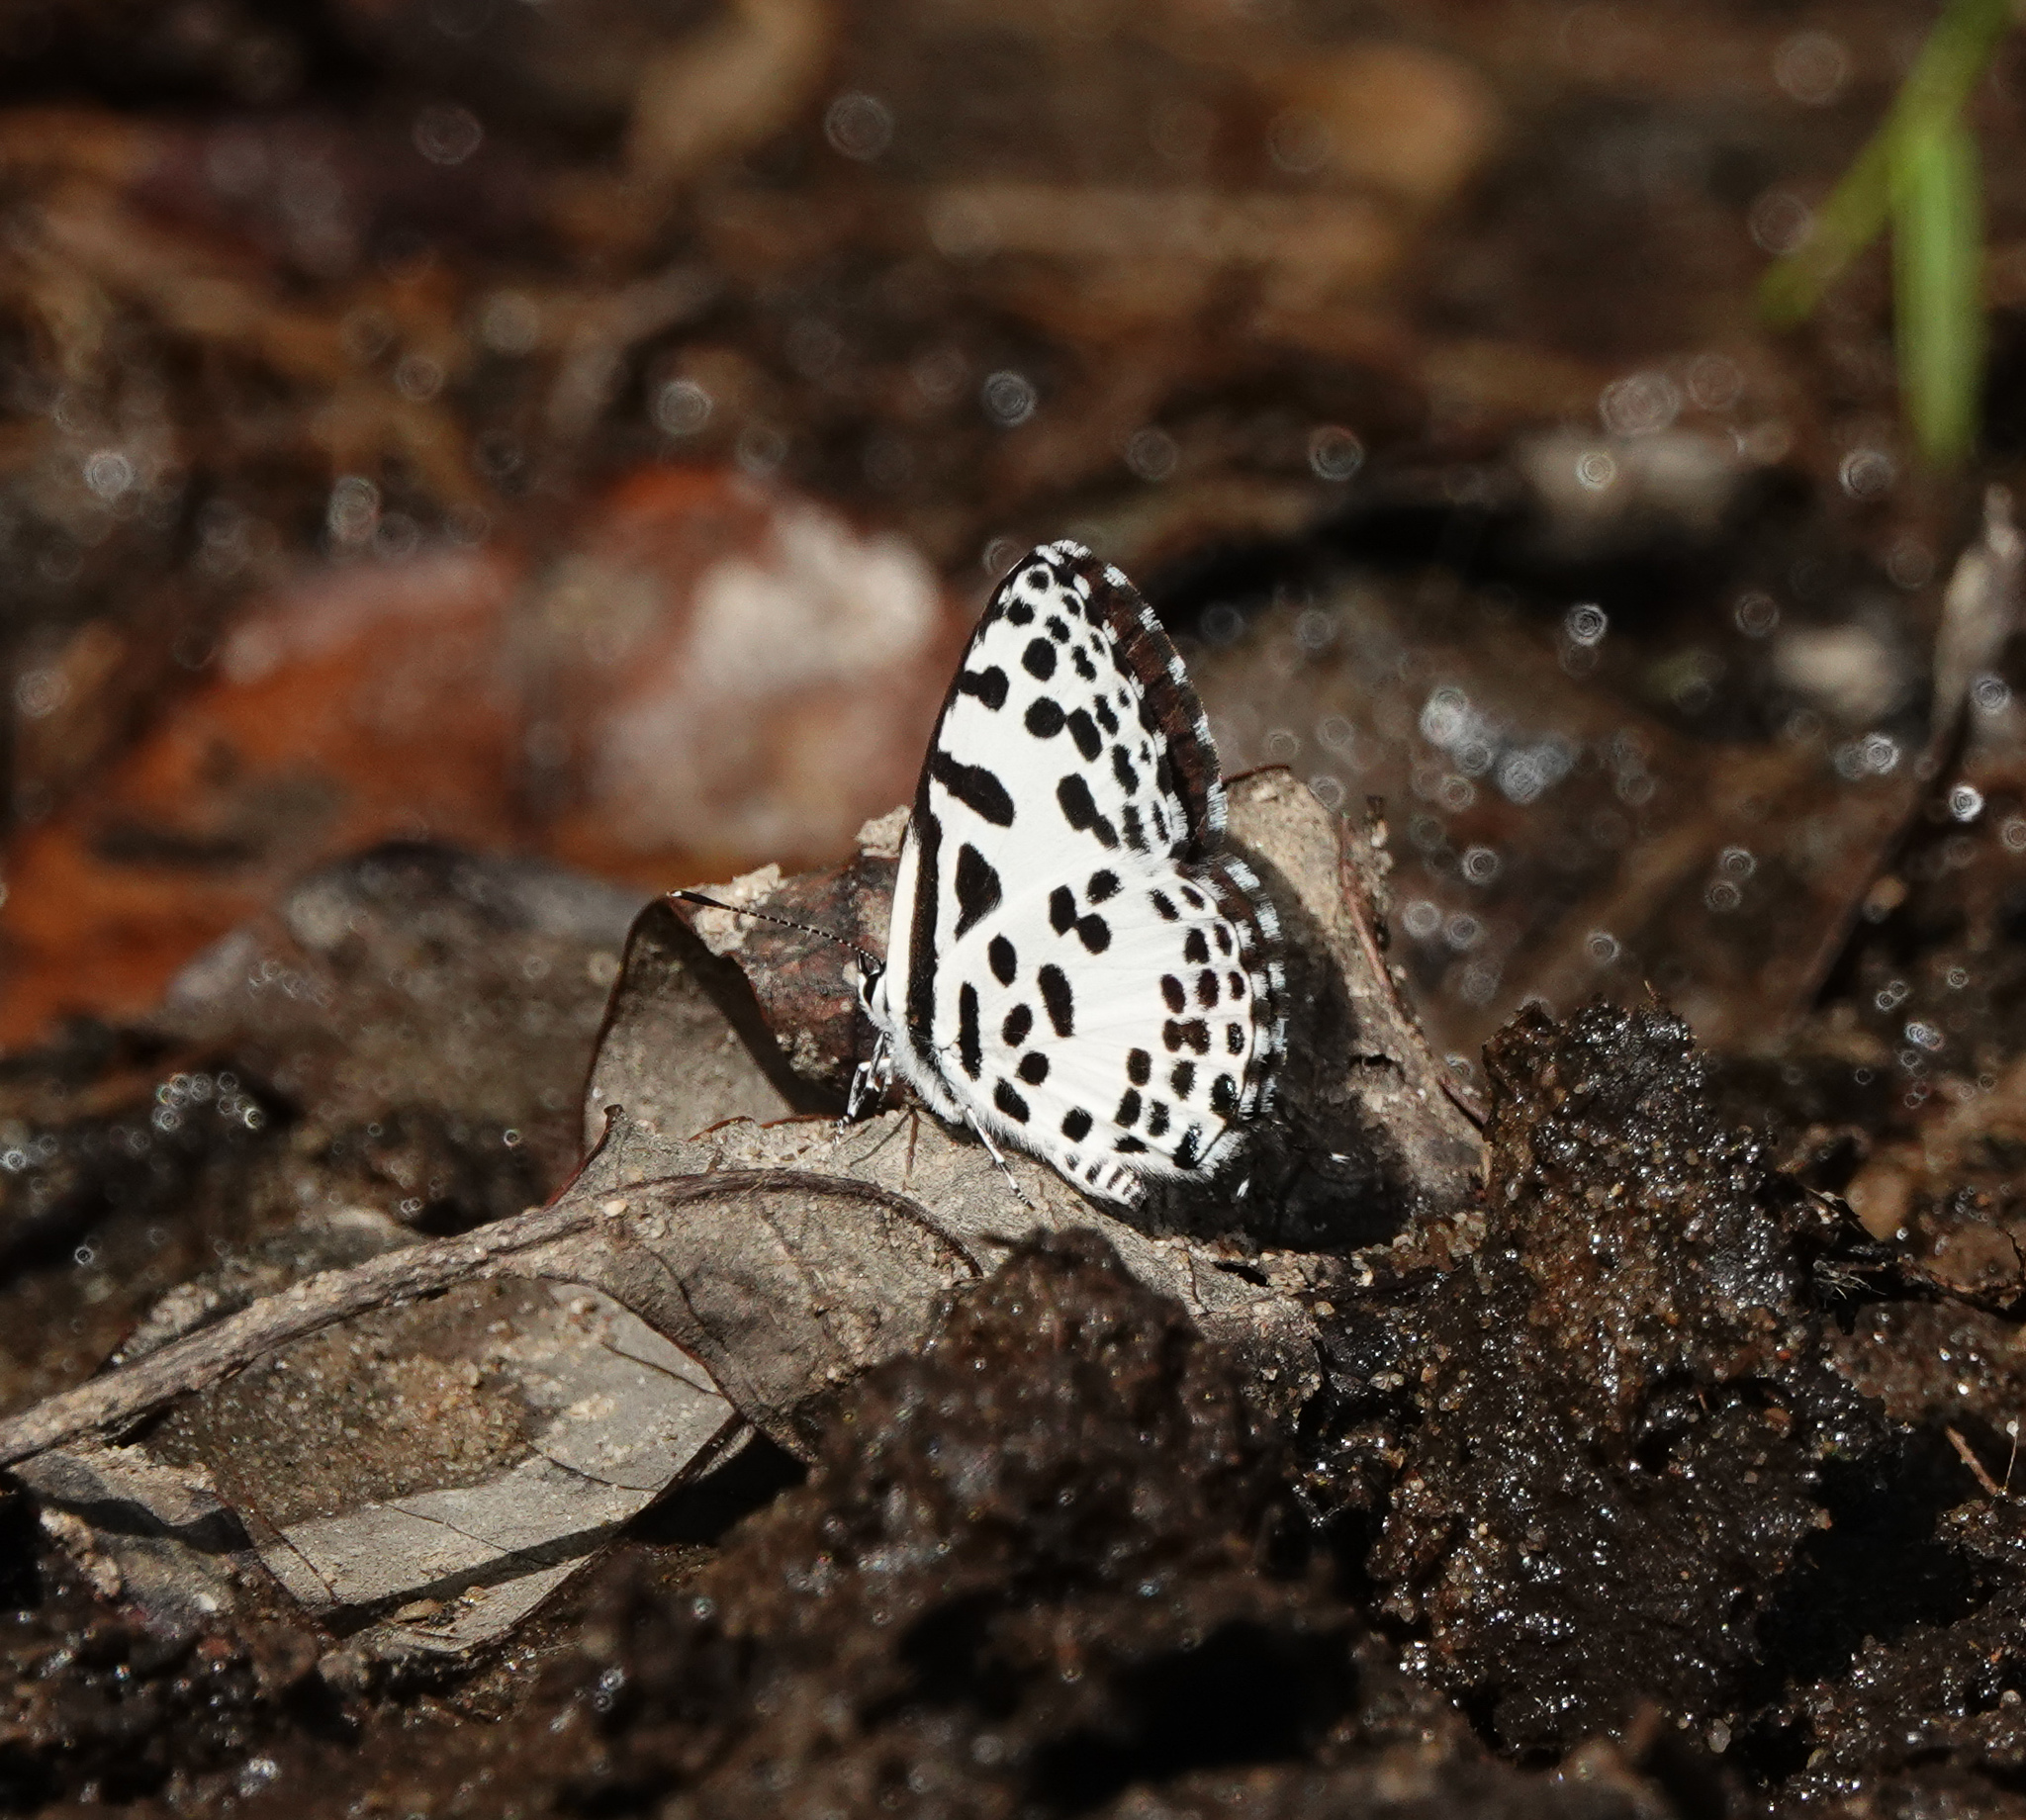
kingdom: Animalia
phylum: Arthropoda
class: Insecta
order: Lepidoptera
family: Lycaenidae
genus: Castalius
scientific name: Castalius rosimon
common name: Common pierrot
